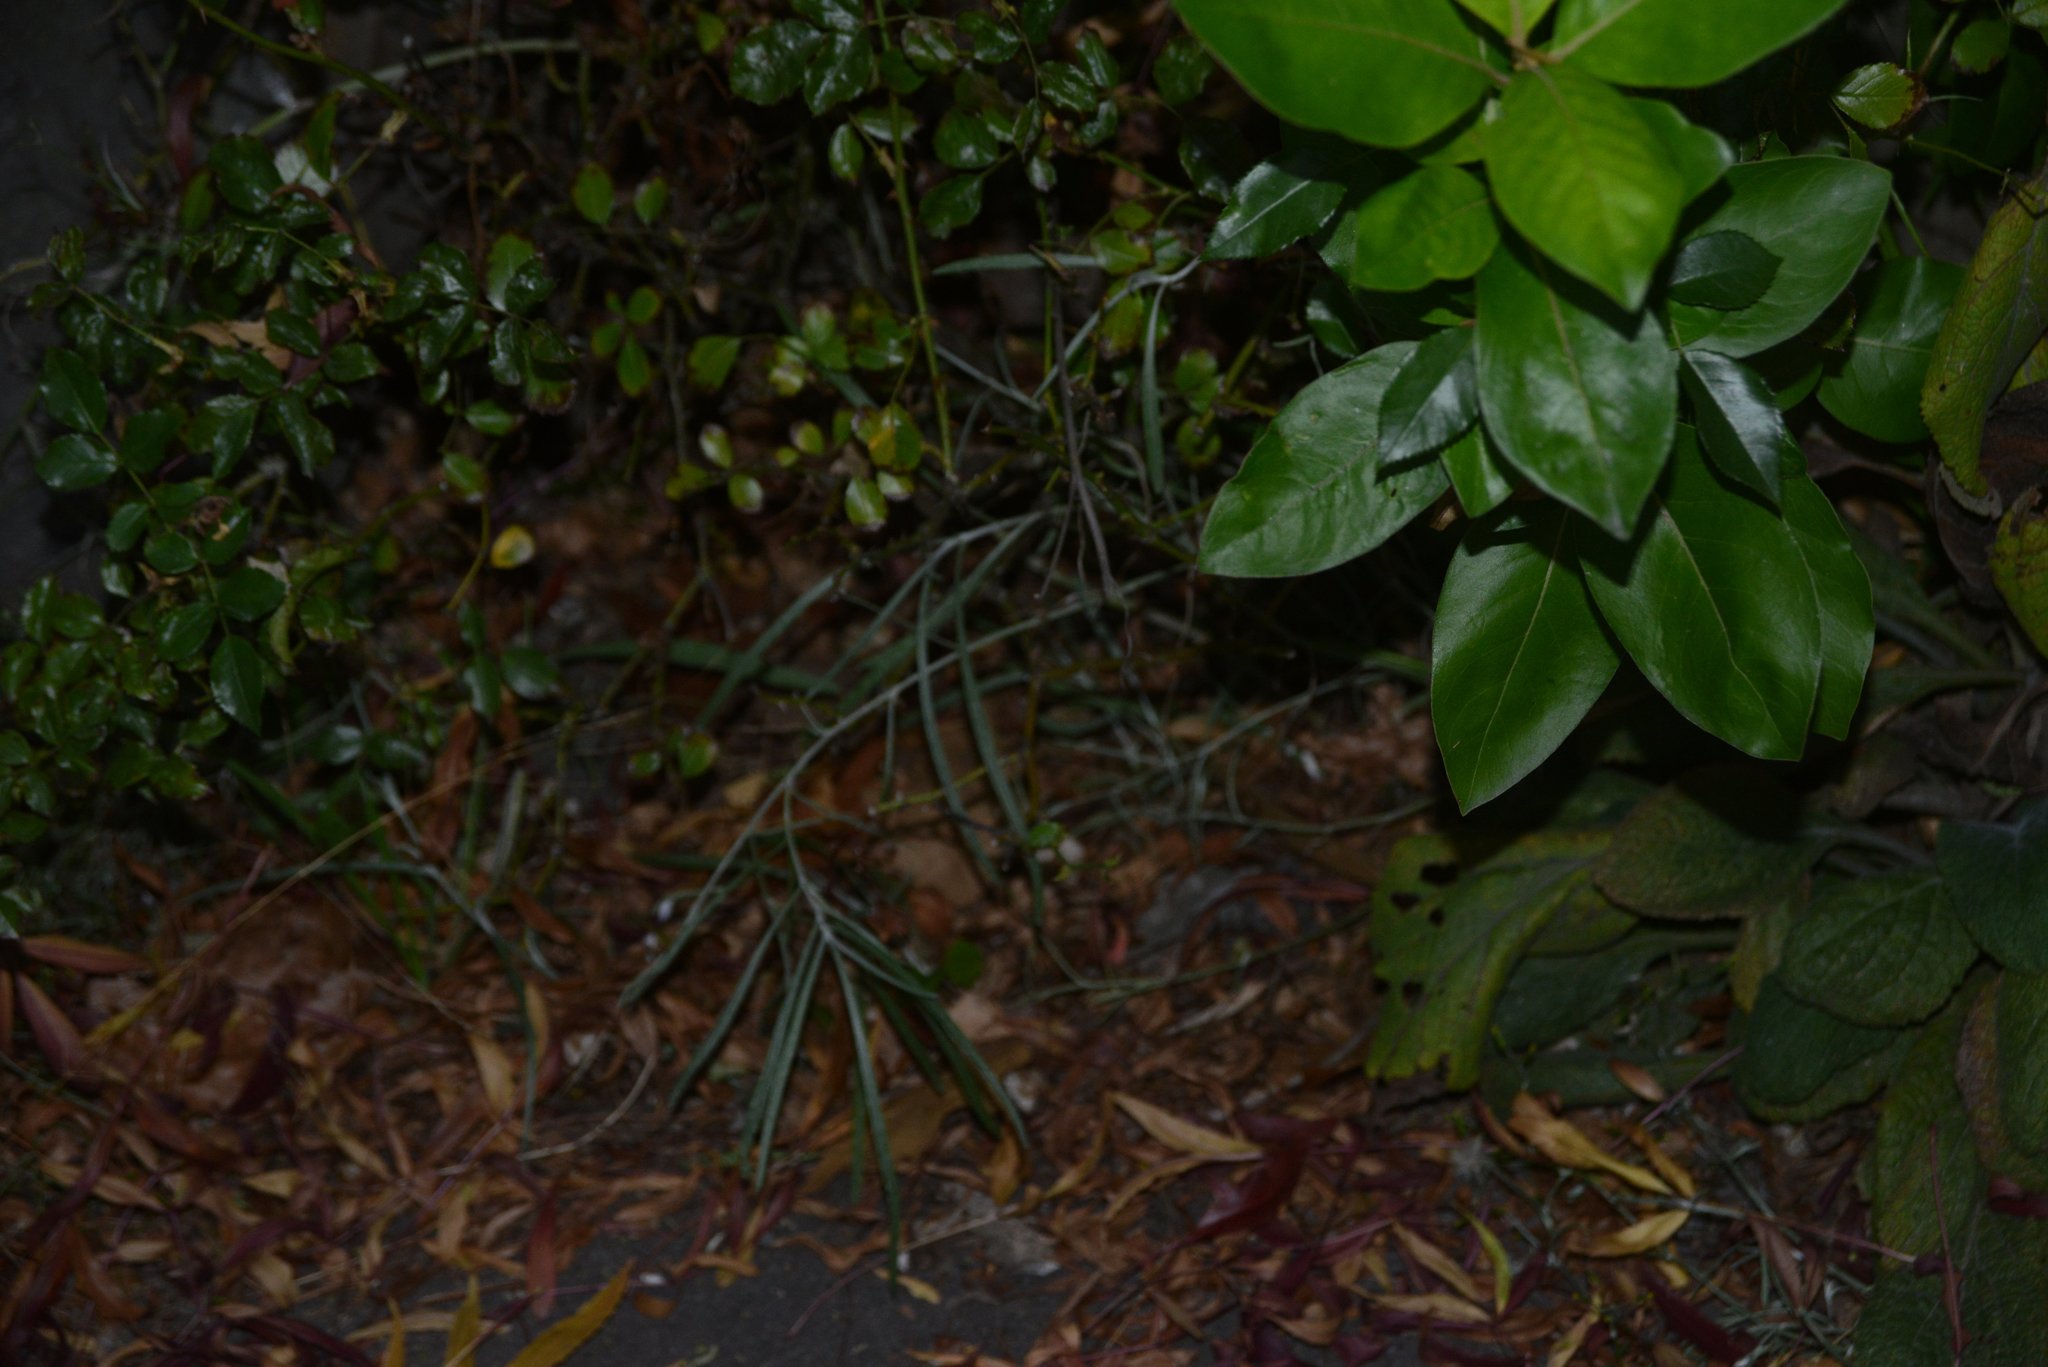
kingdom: Plantae
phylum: Tracheophyta
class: Magnoliopsida
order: Asterales
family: Asteraceae
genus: Senecio
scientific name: Senecio quadridentatus
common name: Cotton fireweed
